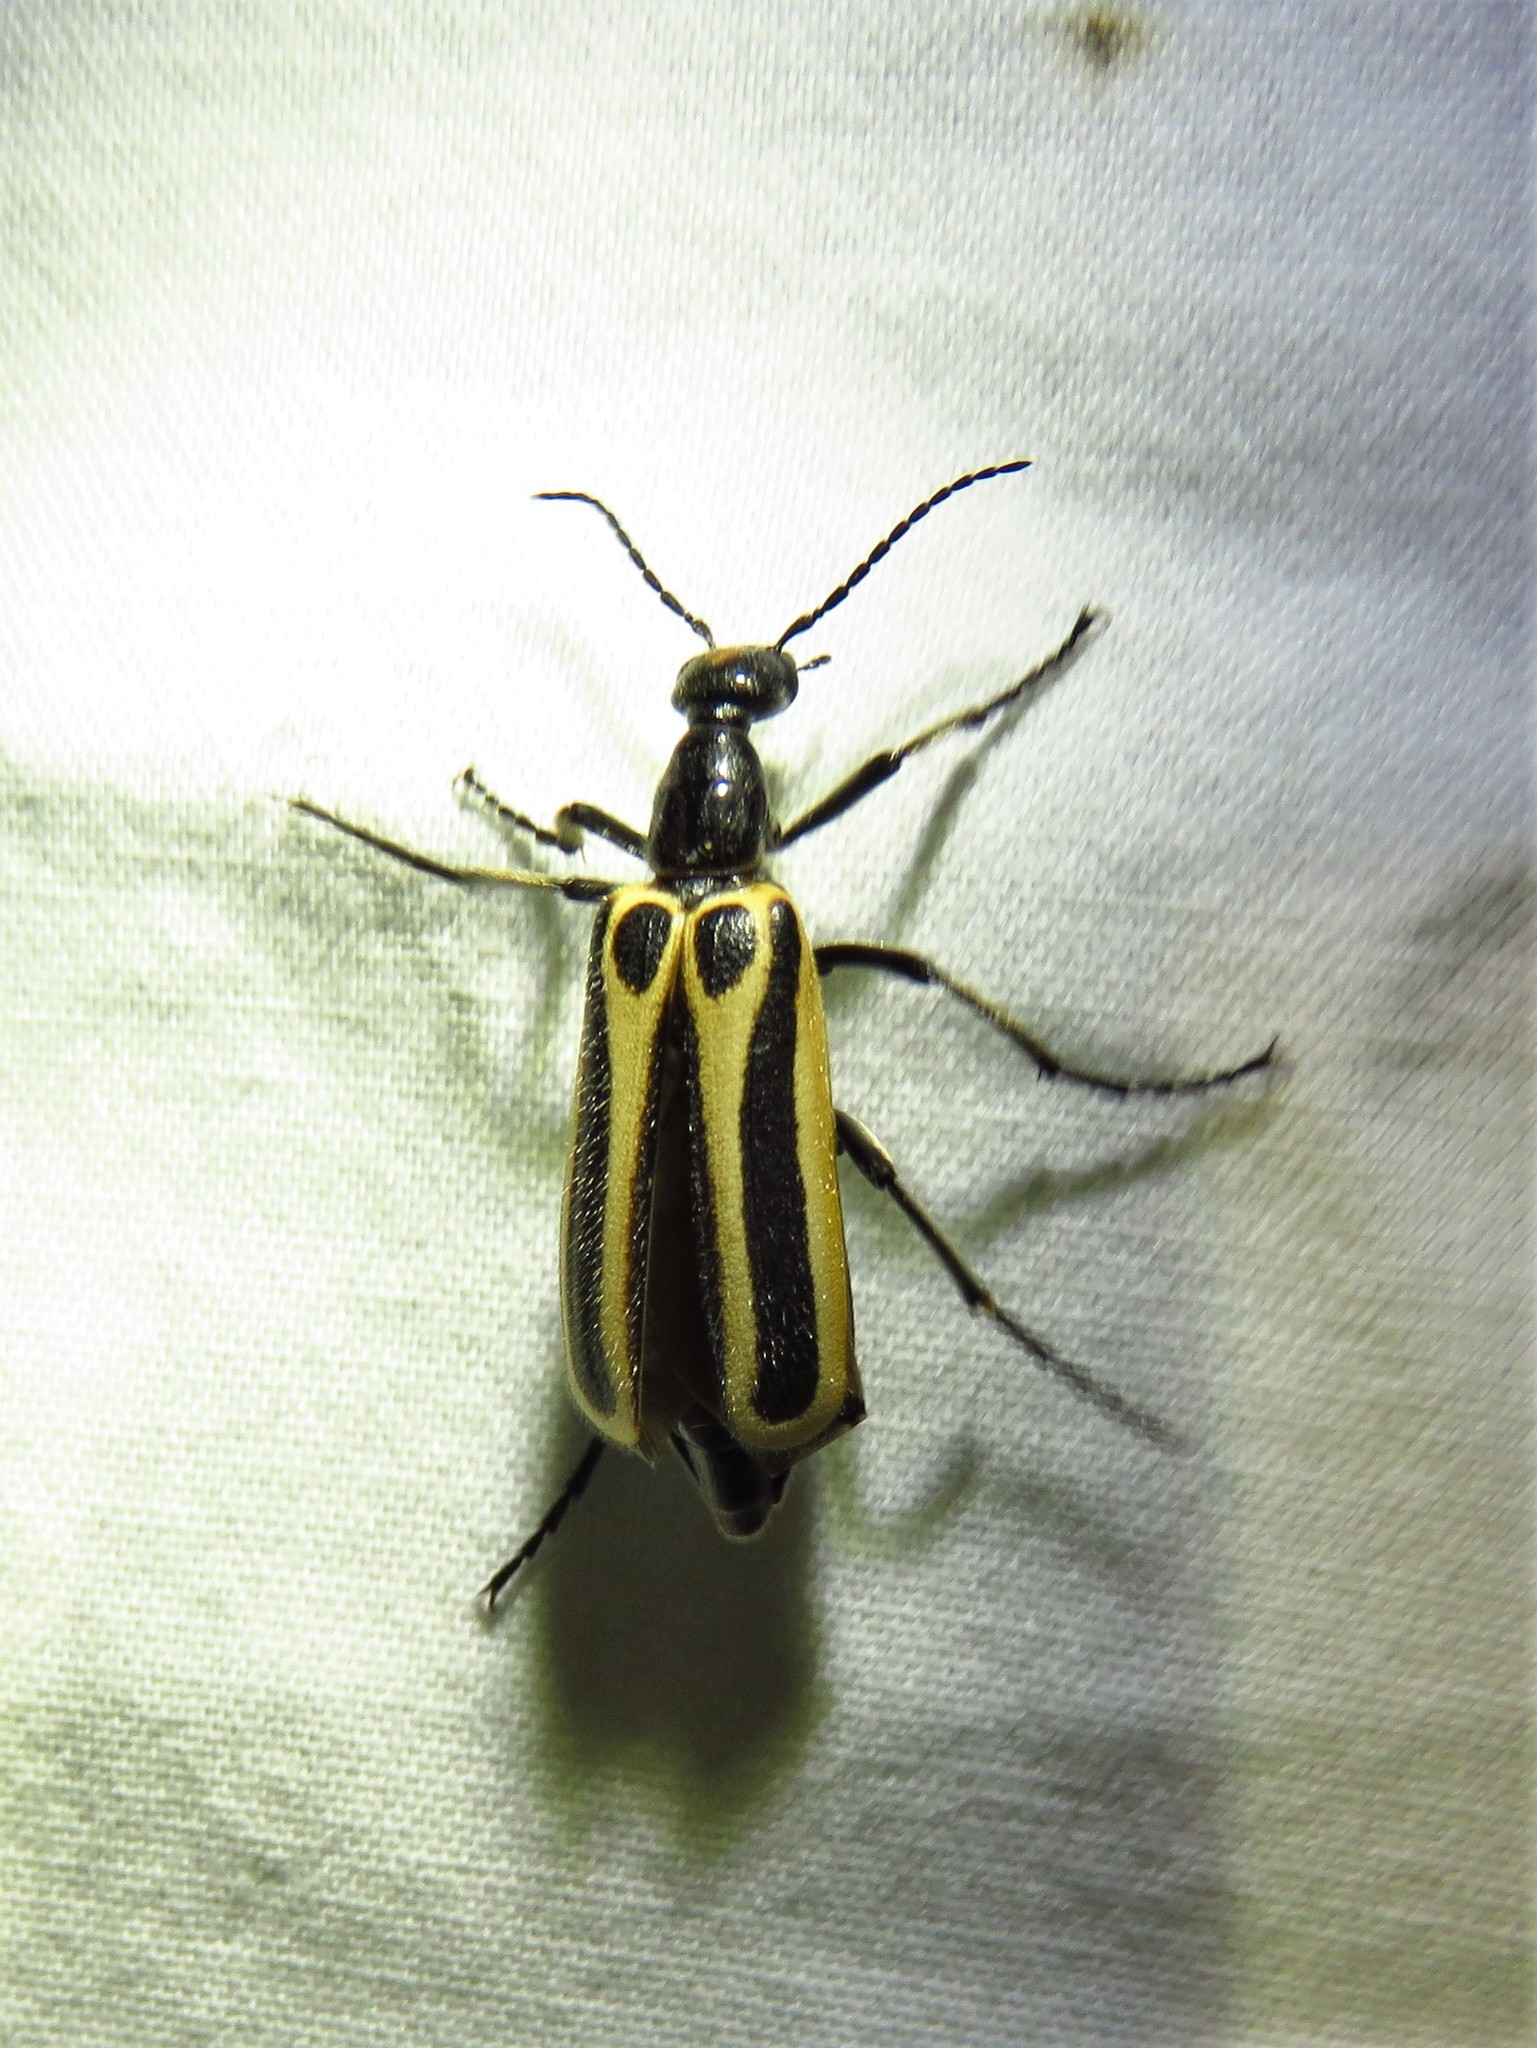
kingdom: Animalia
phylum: Arthropoda
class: Insecta
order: Coleoptera
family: Meloidae
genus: Pyrota
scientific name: Pyrota invita
